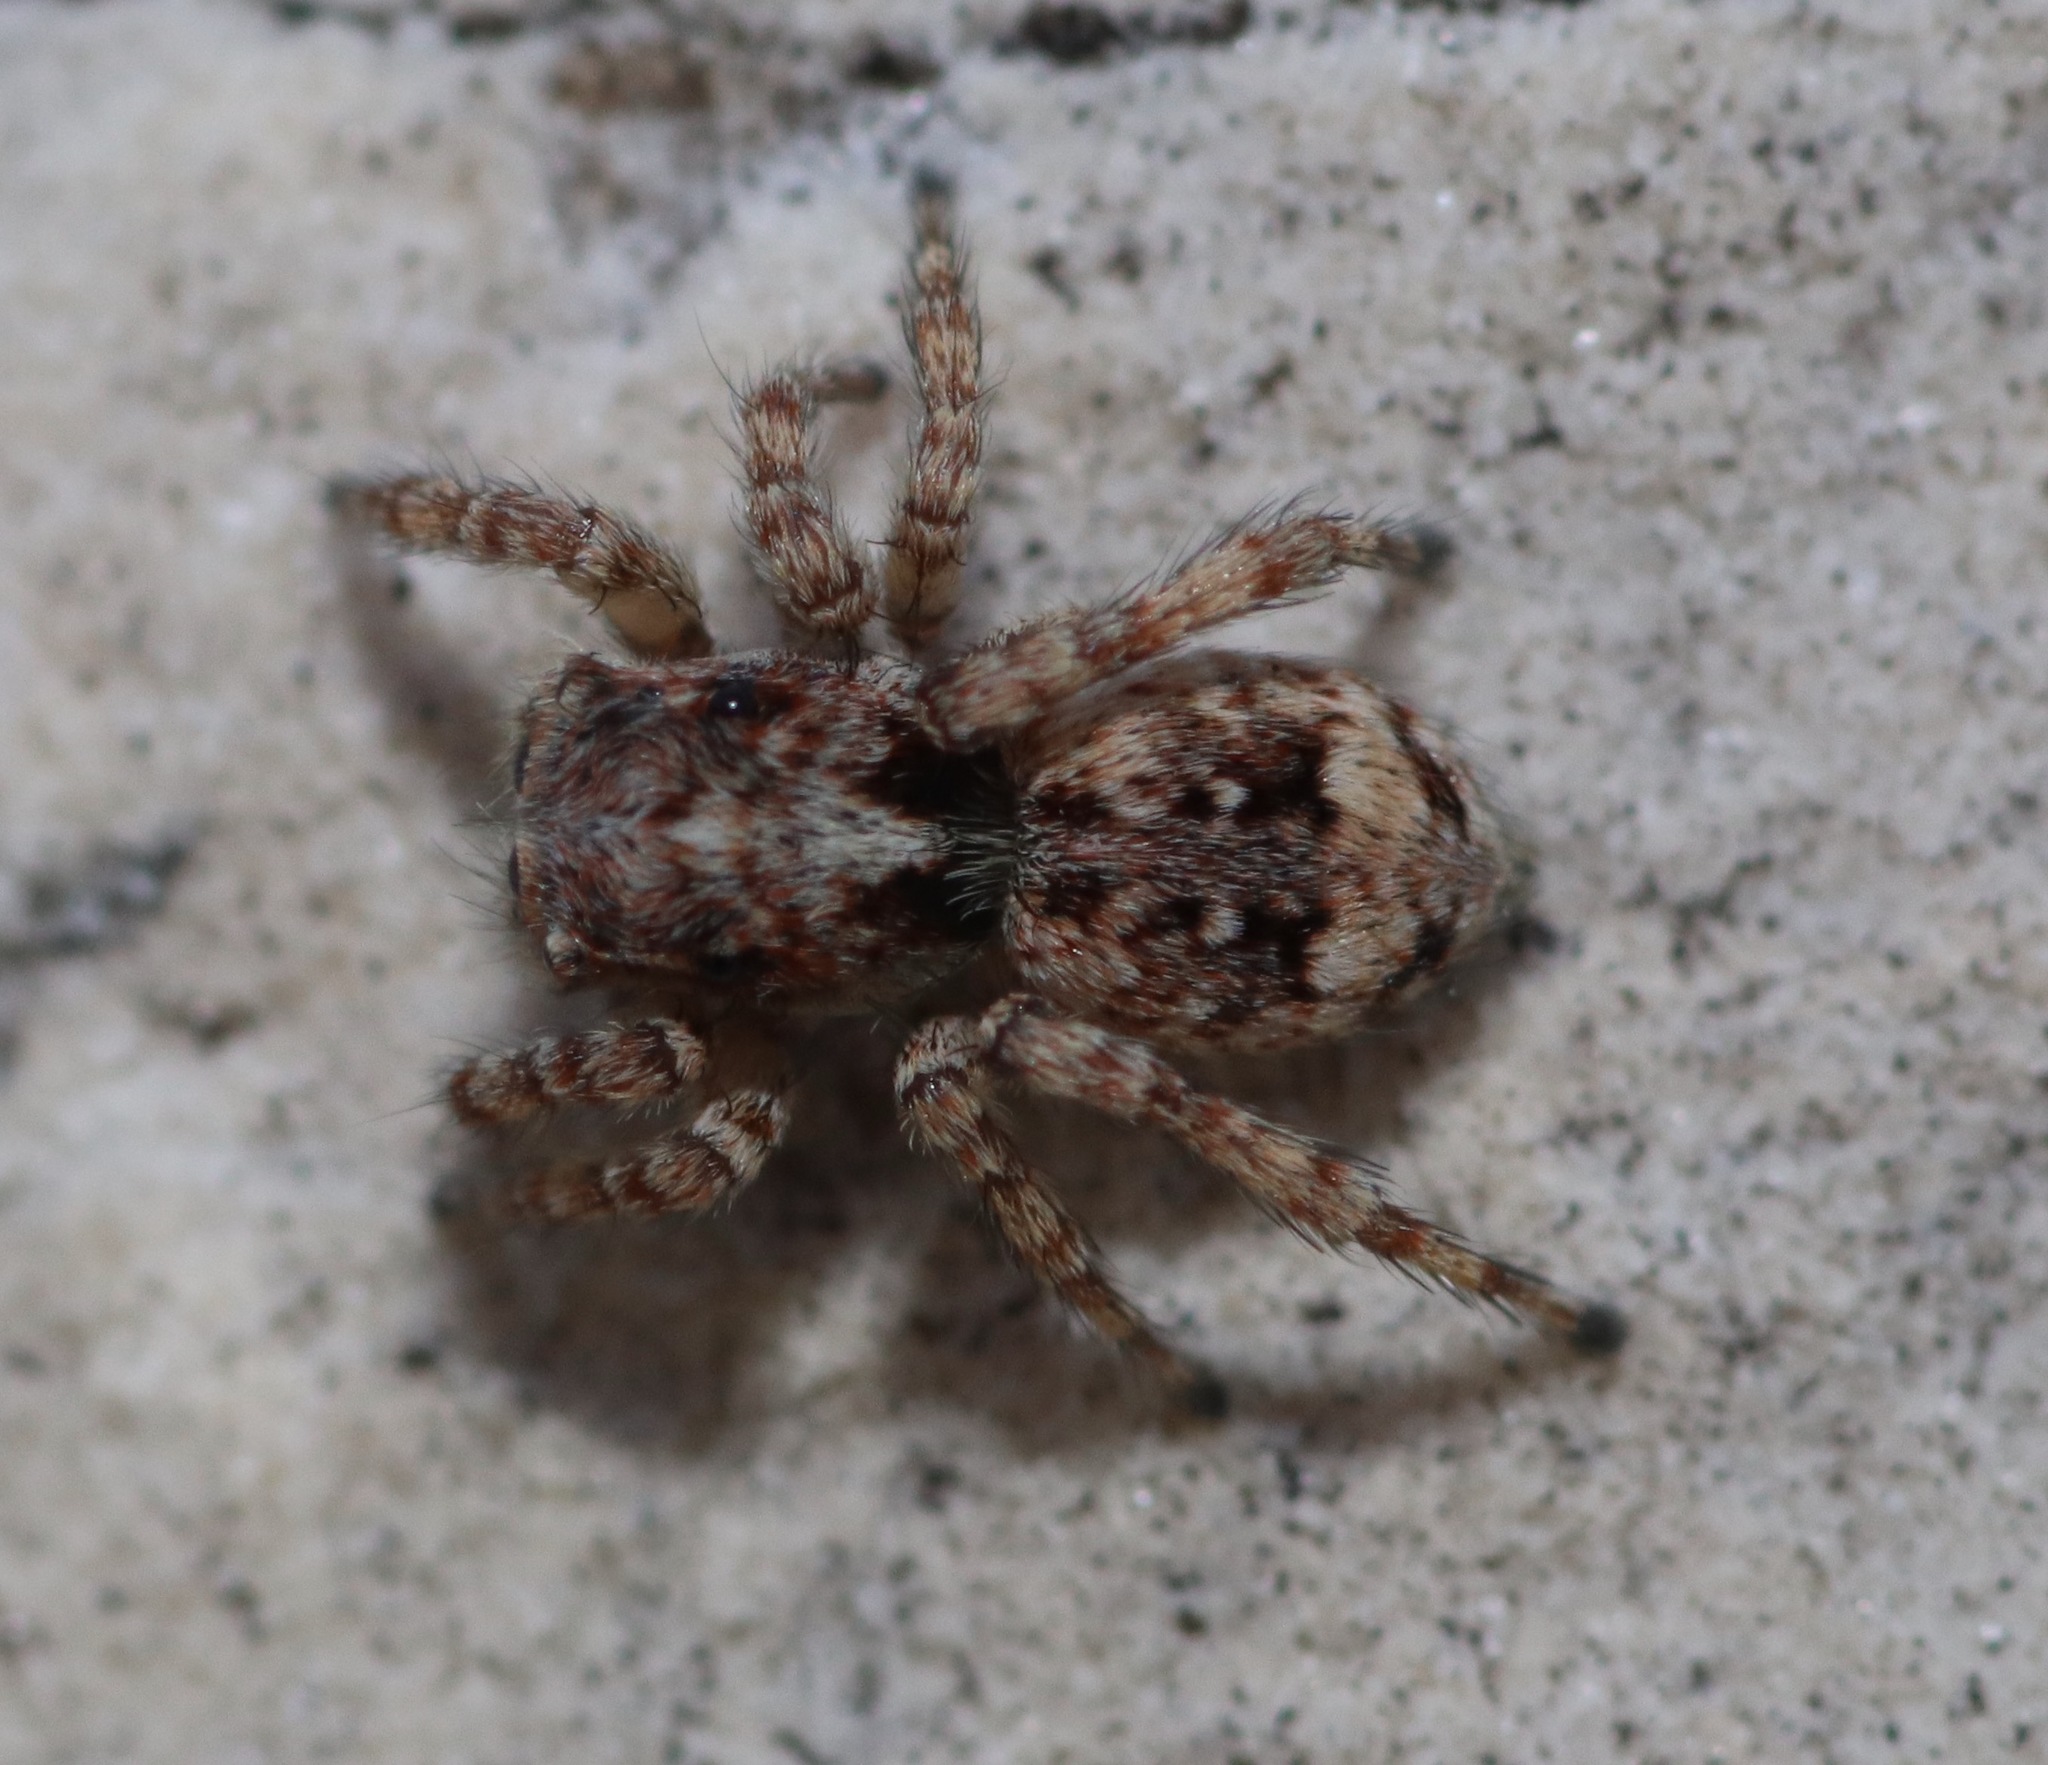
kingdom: Animalia
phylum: Arthropoda
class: Arachnida
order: Araneae
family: Salticidae
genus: Attulus
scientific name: Attulus fasciger
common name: Asiatic wall jumping spider
